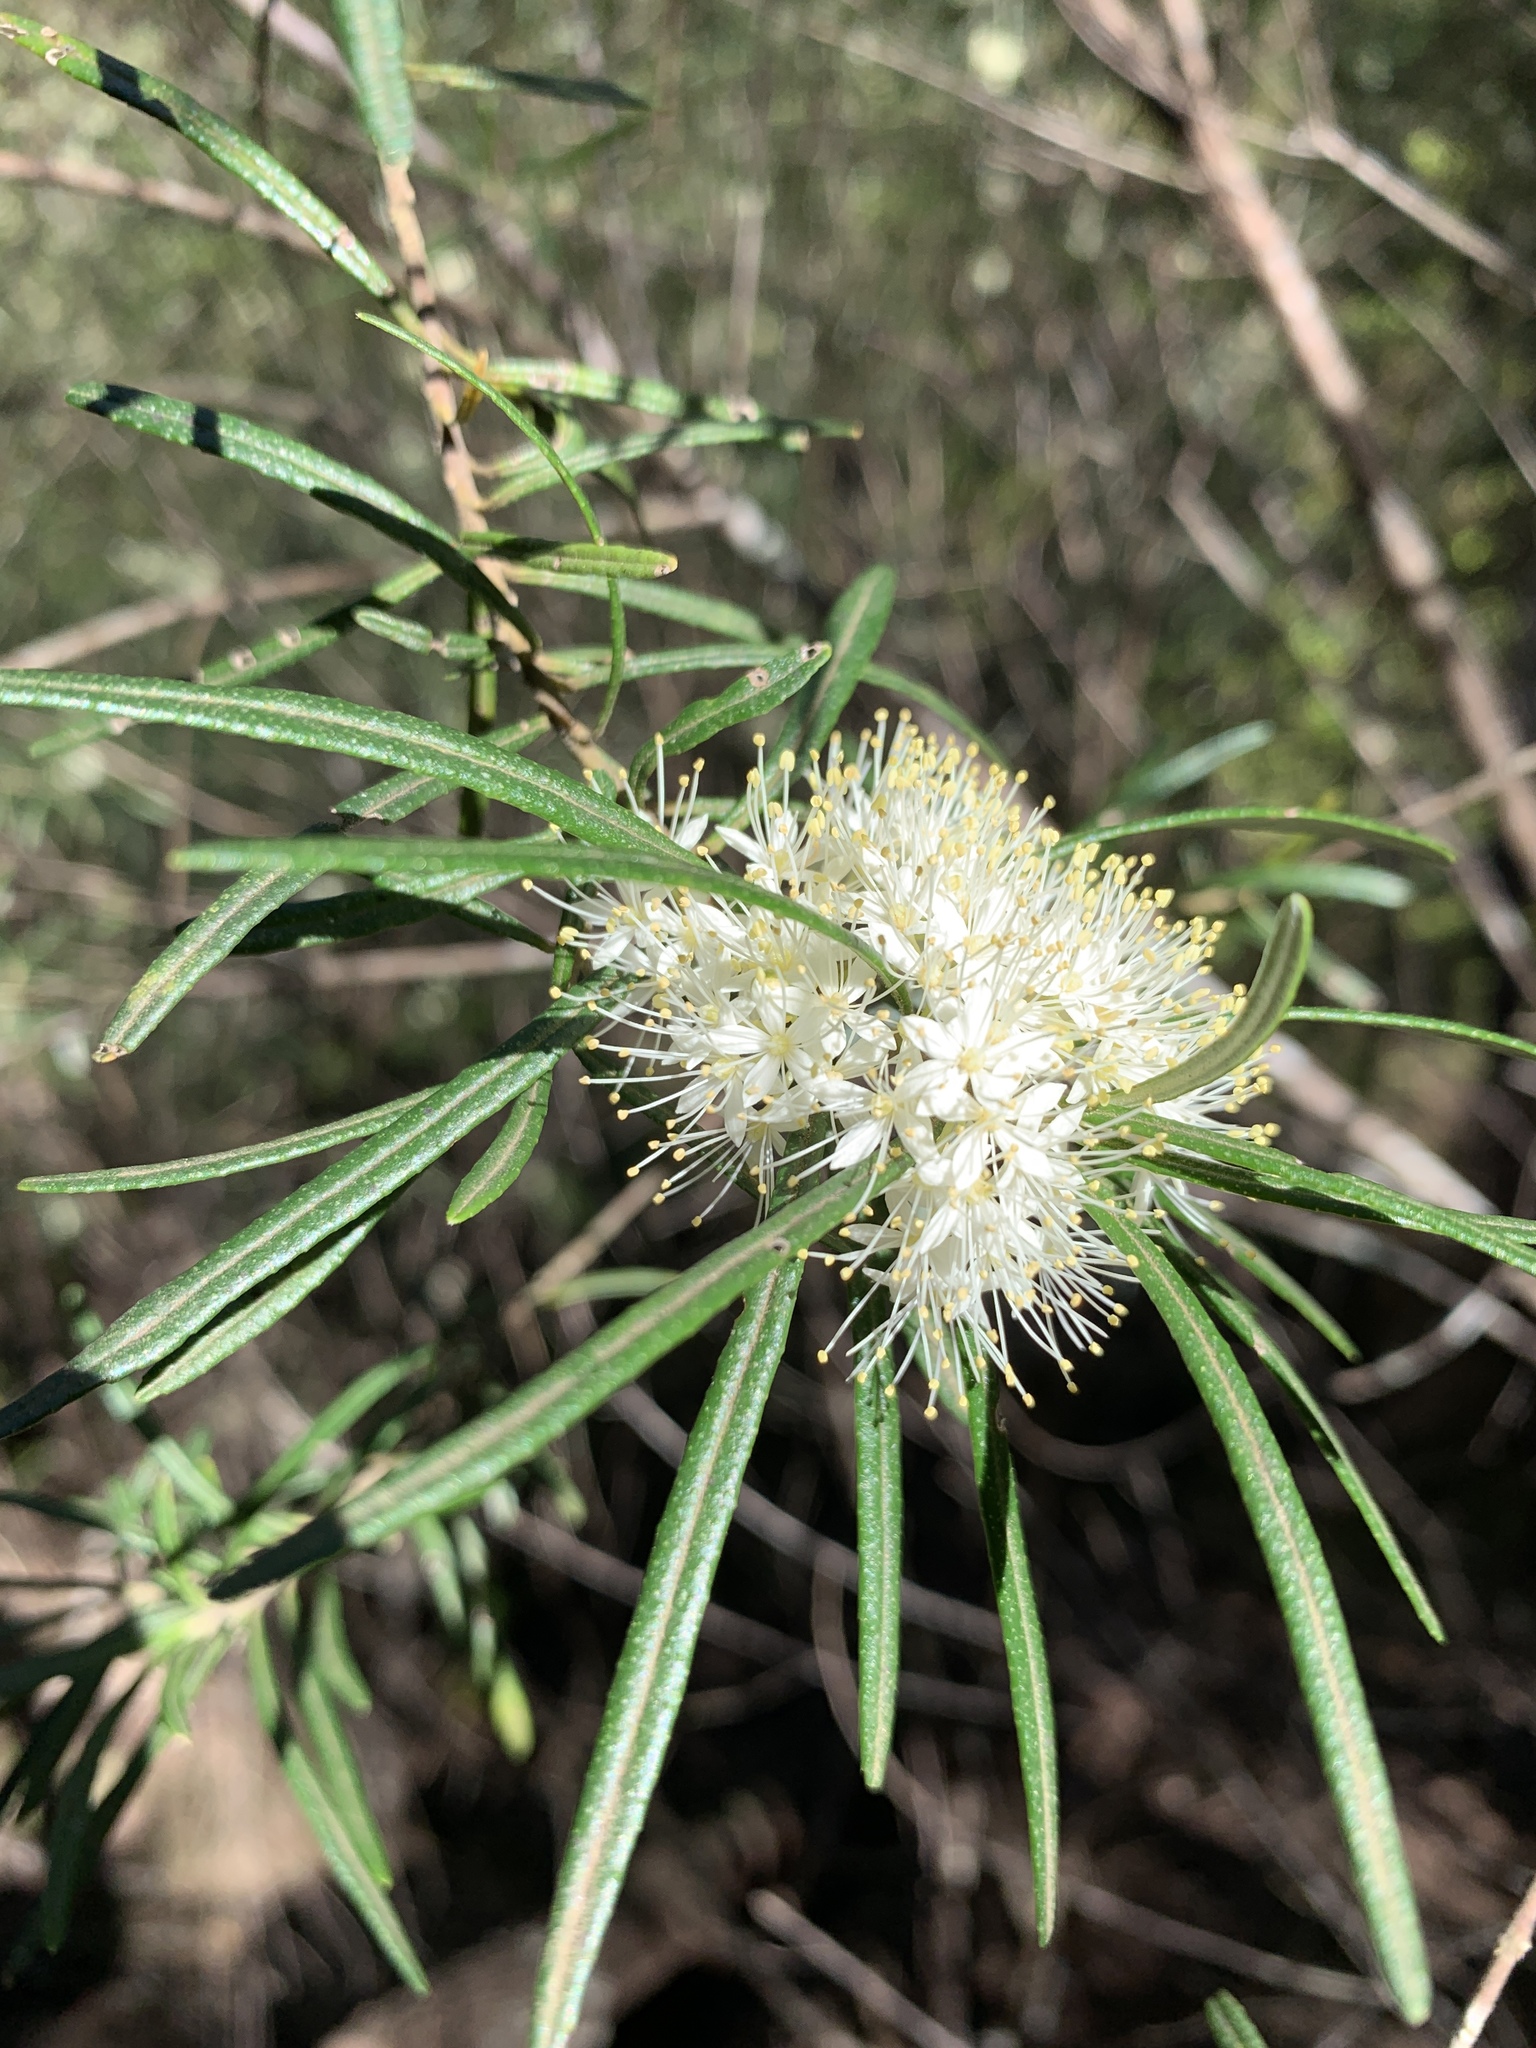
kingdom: Plantae
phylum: Tracheophyta
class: Magnoliopsida
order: Sapindales
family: Rutaceae
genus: Leionema
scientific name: Leionema dentatum
